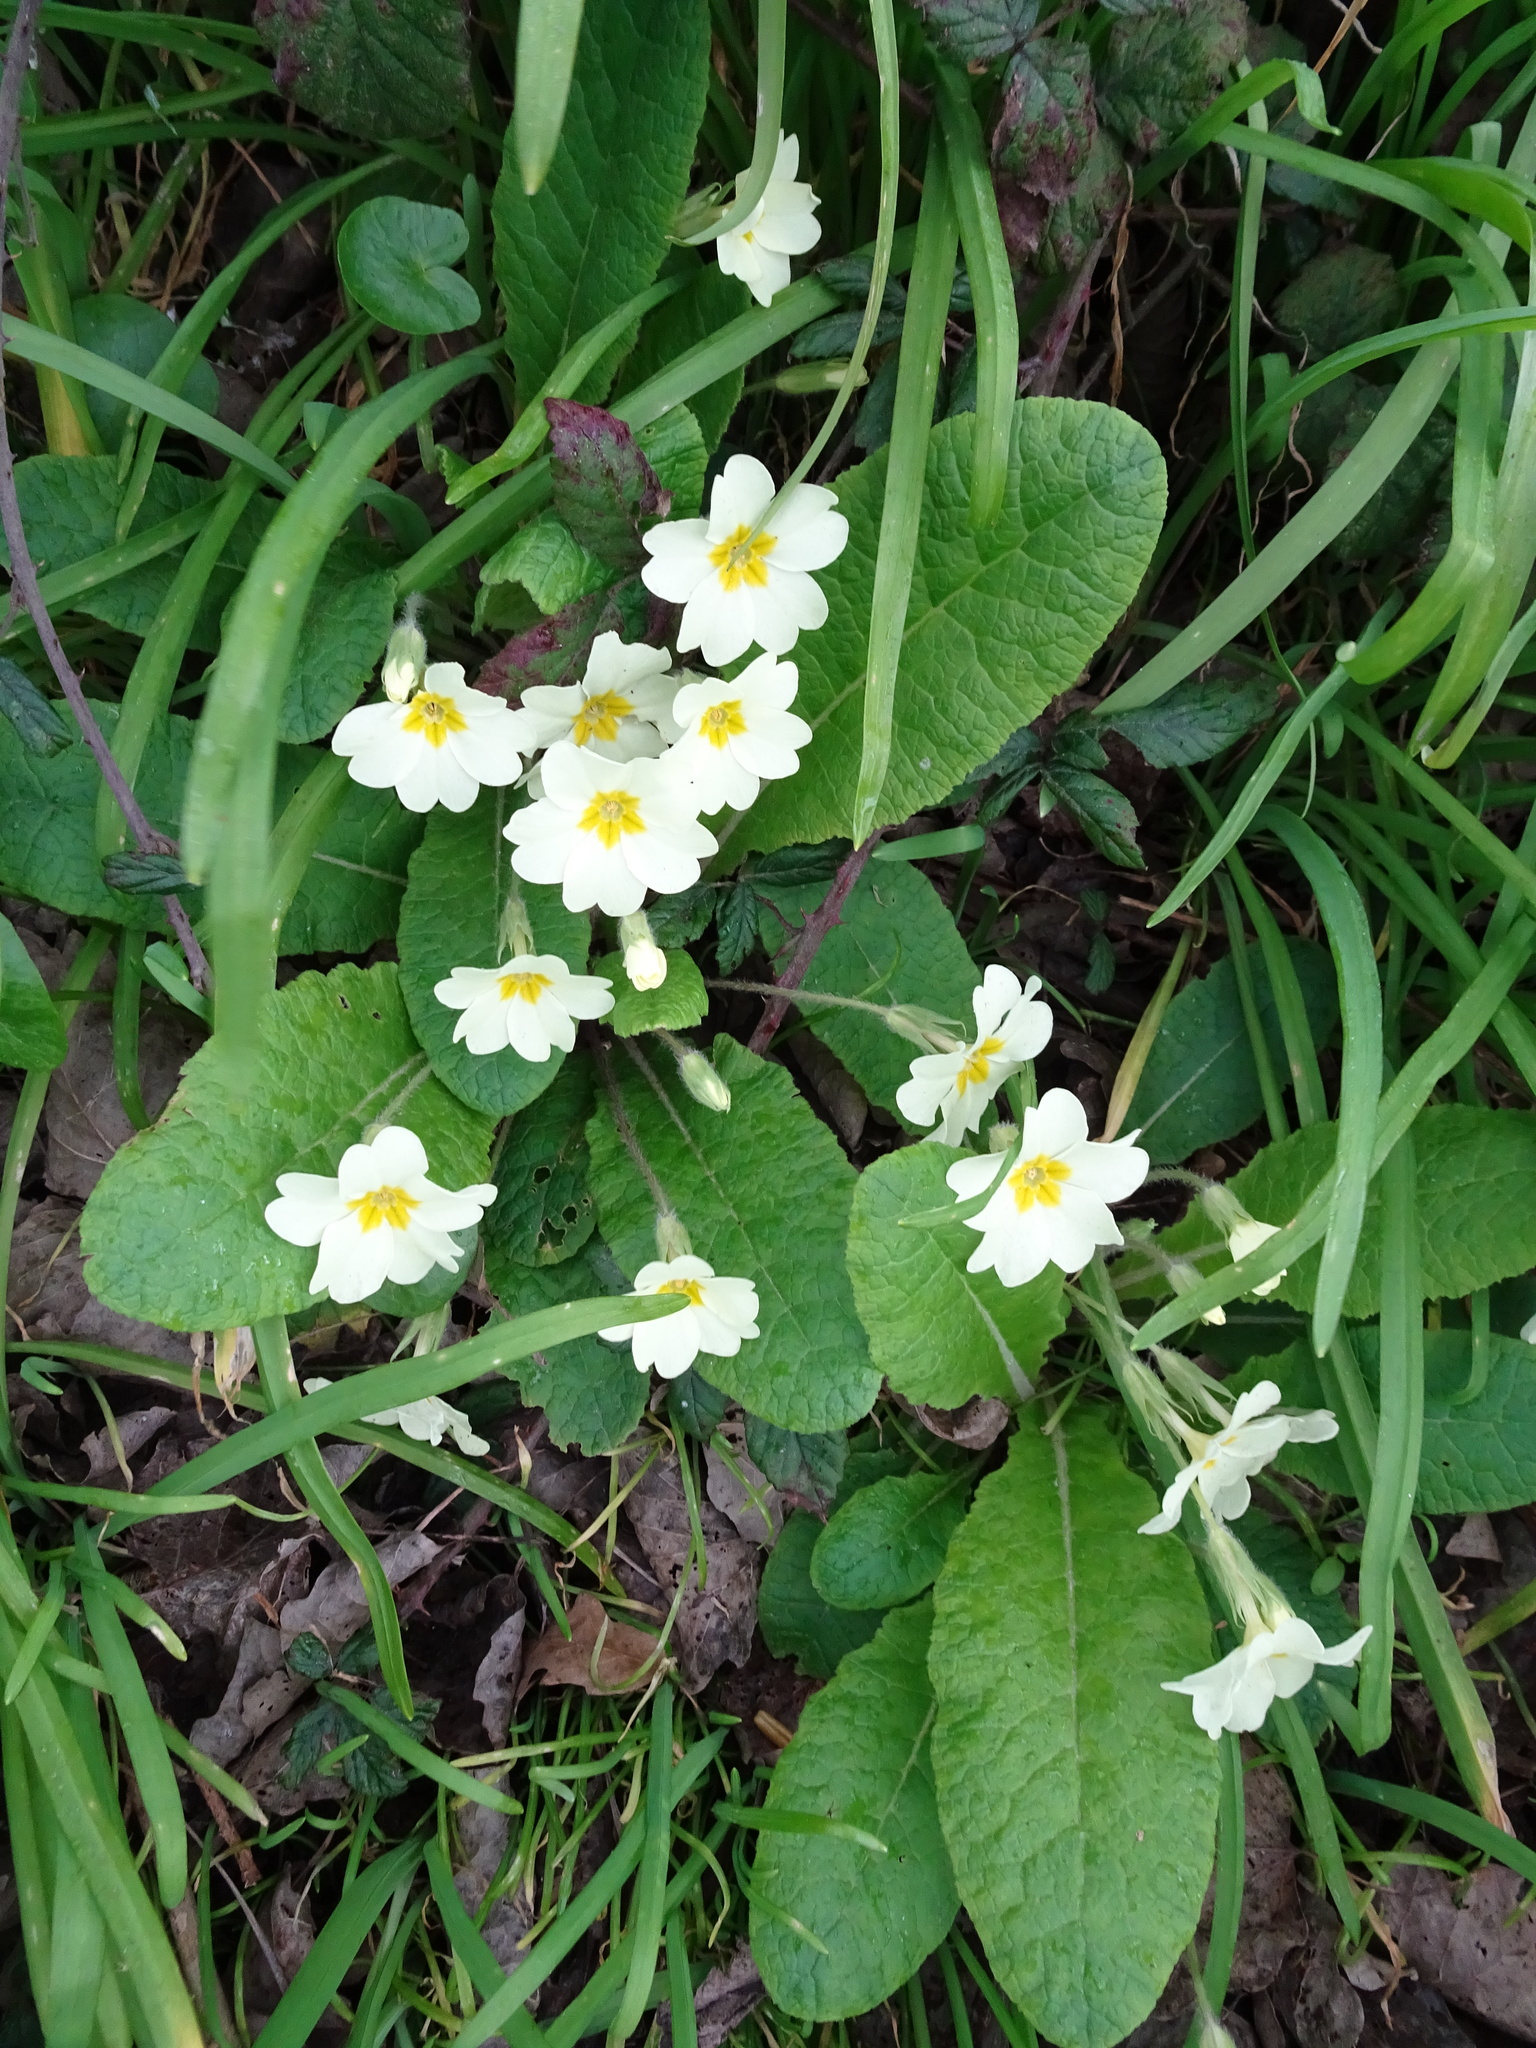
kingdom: Plantae
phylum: Tracheophyta
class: Magnoliopsida
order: Ericales
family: Primulaceae
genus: Primula
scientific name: Primula vulgaris
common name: Primrose
